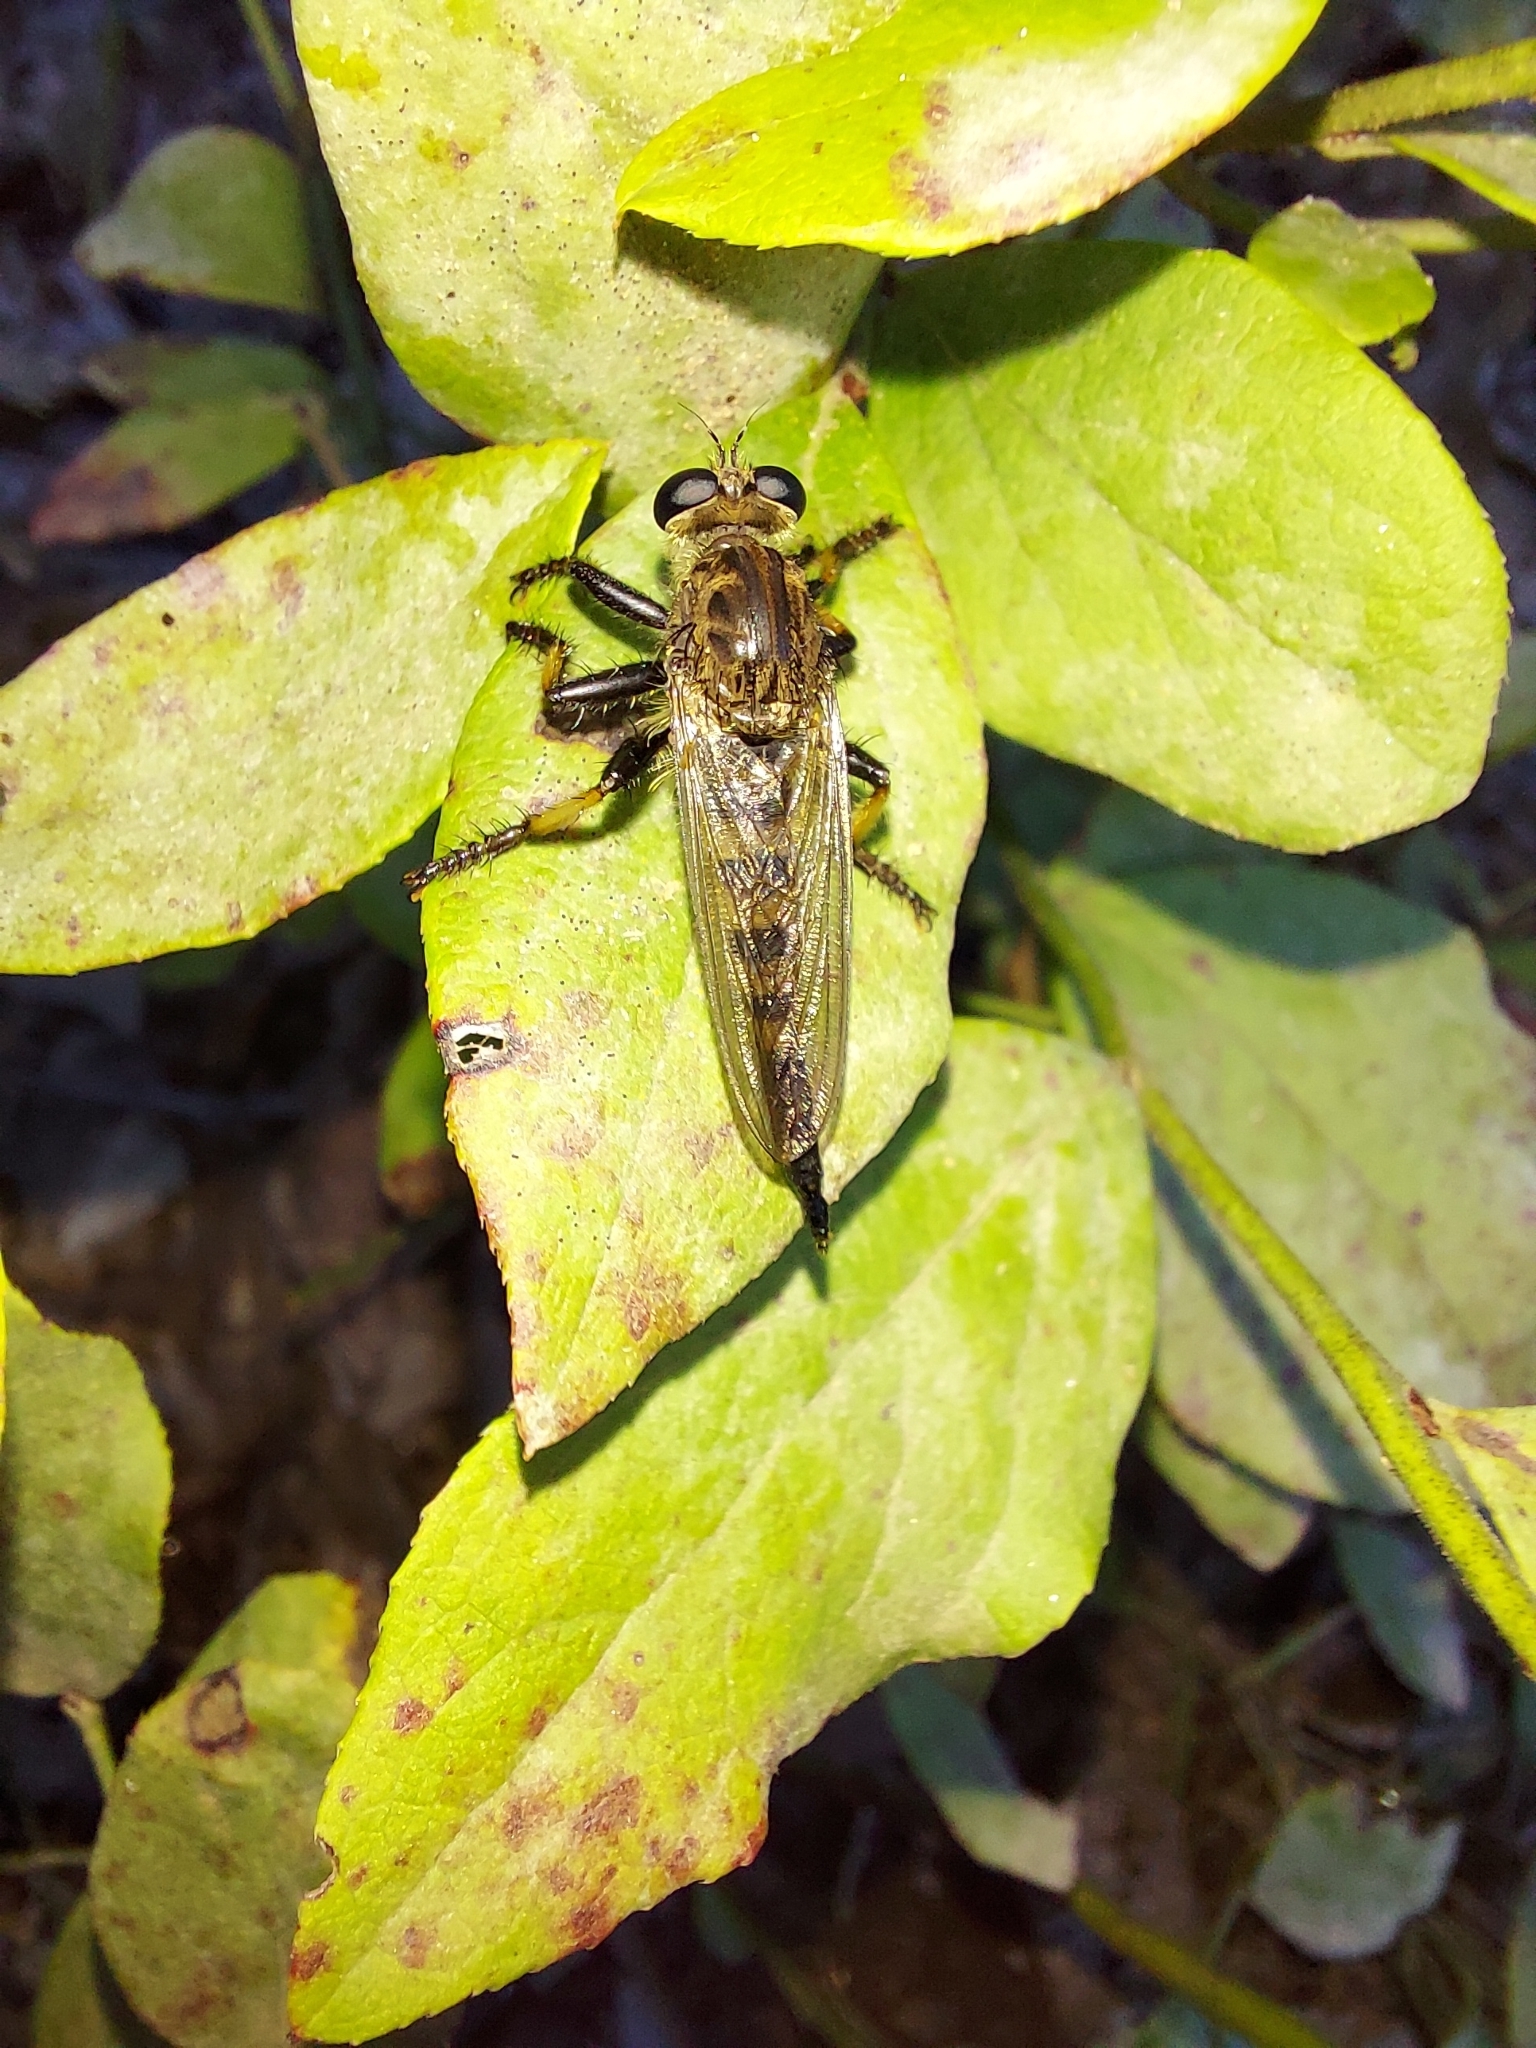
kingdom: Animalia
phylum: Arthropoda
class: Insecta
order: Diptera
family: Asilidae
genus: Promachus
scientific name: Promachus rufipes
